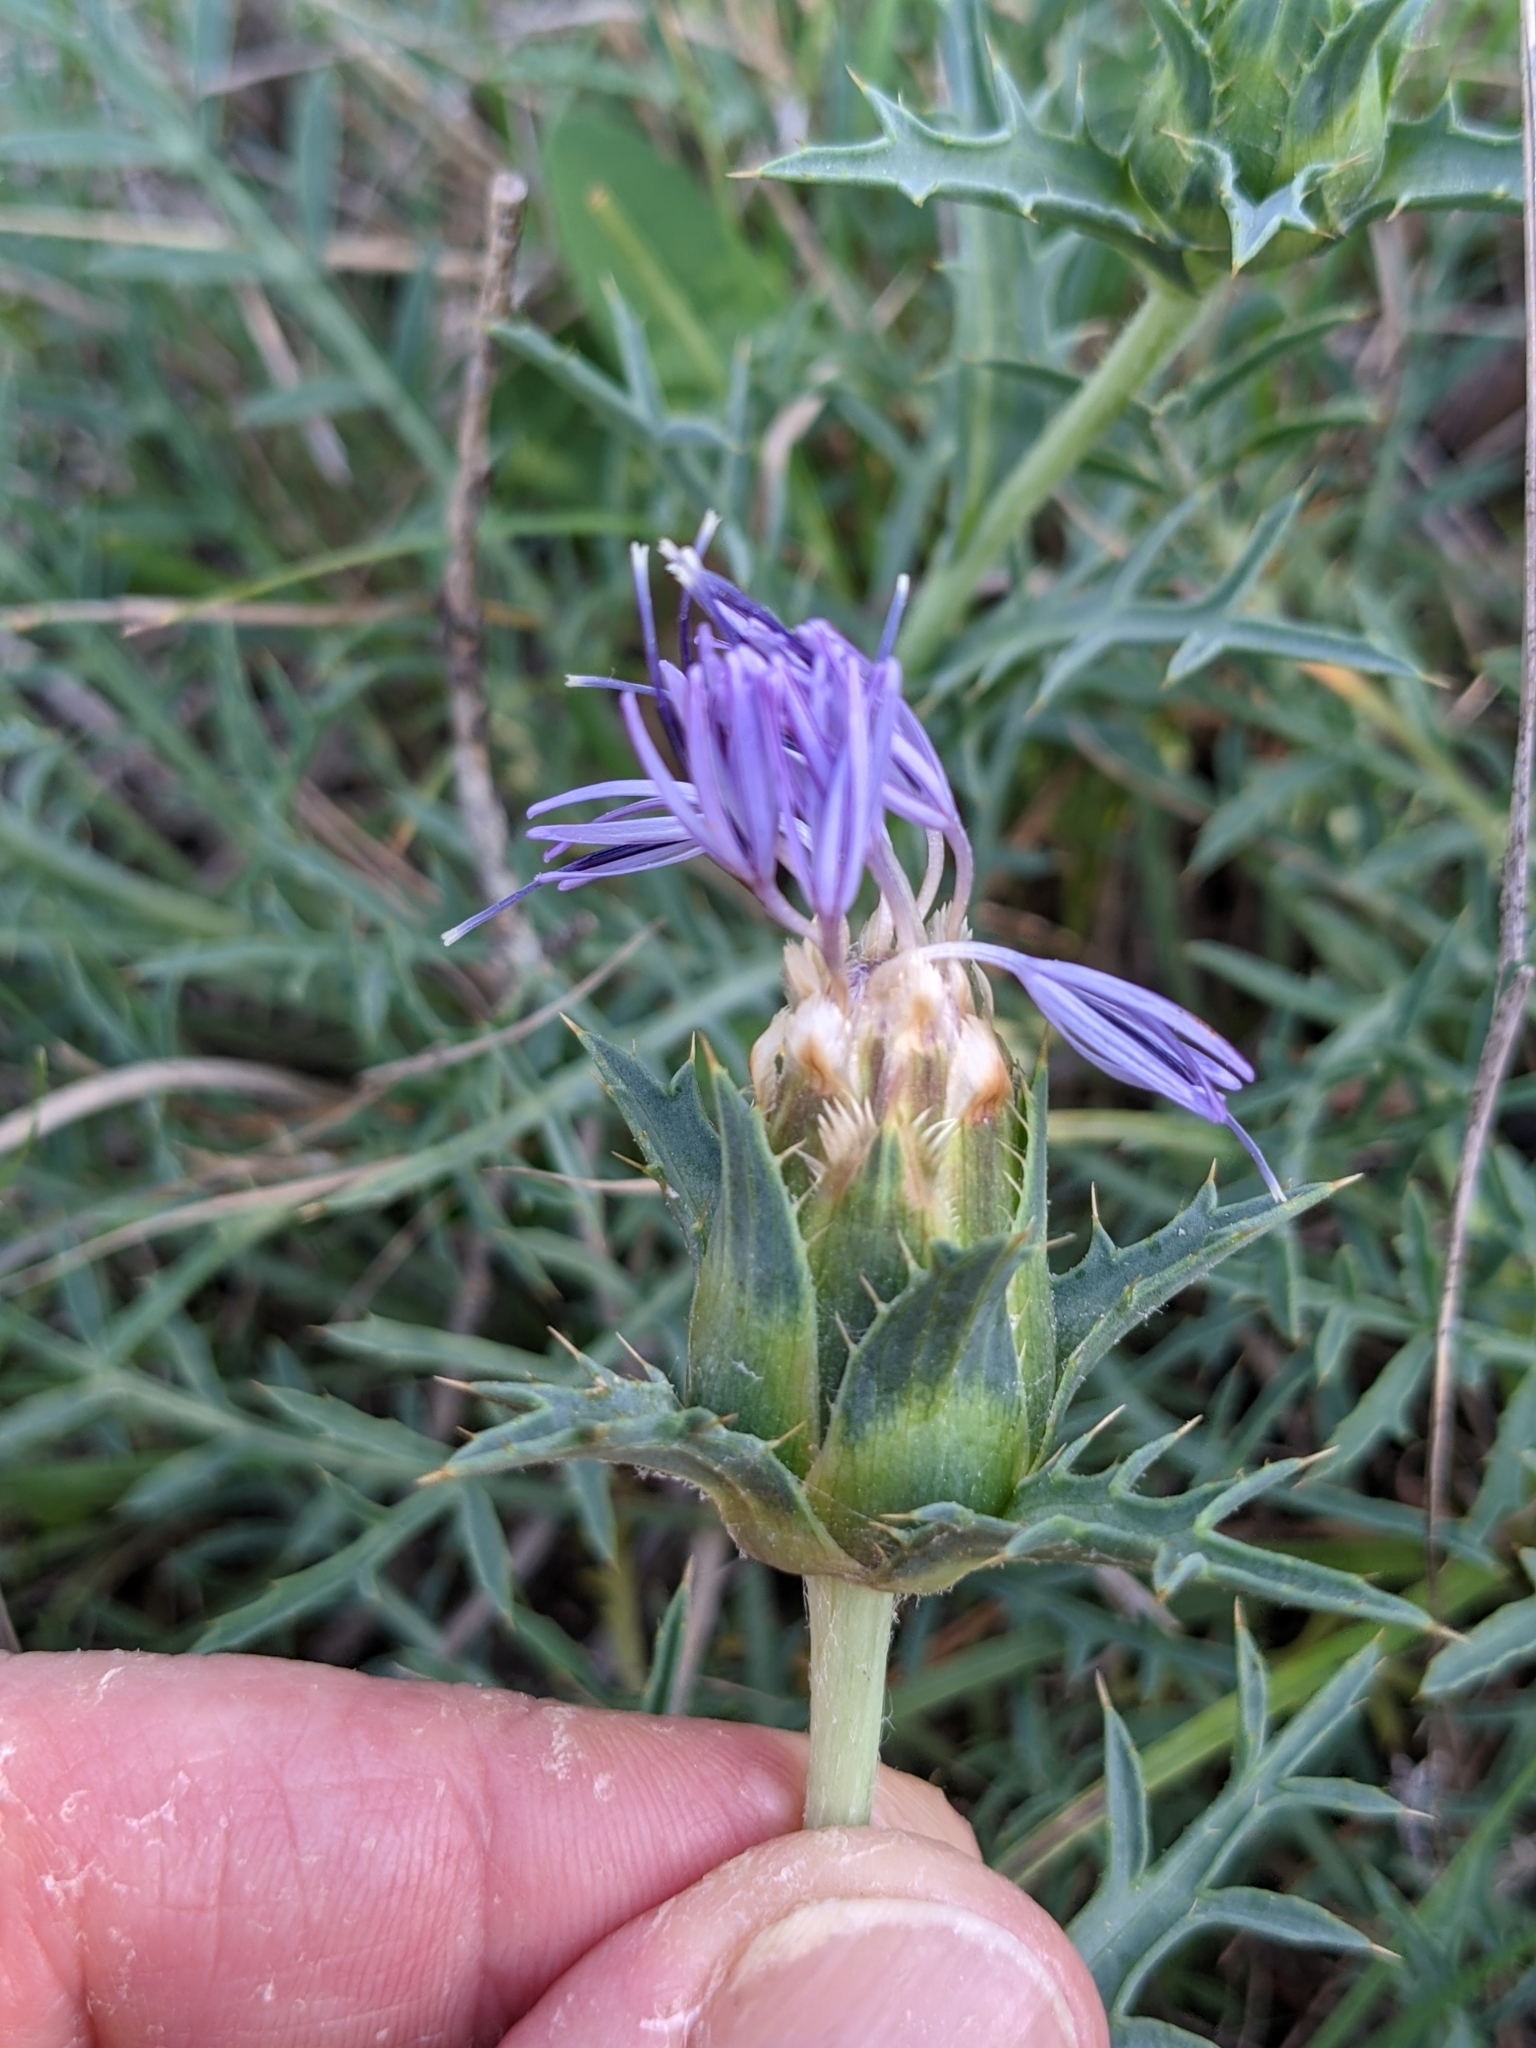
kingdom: Plantae
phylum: Tracheophyta
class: Magnoliopsida
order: Asterales
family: Asteraceae
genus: Carduncellus
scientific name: Carduncellus monspelliensium
